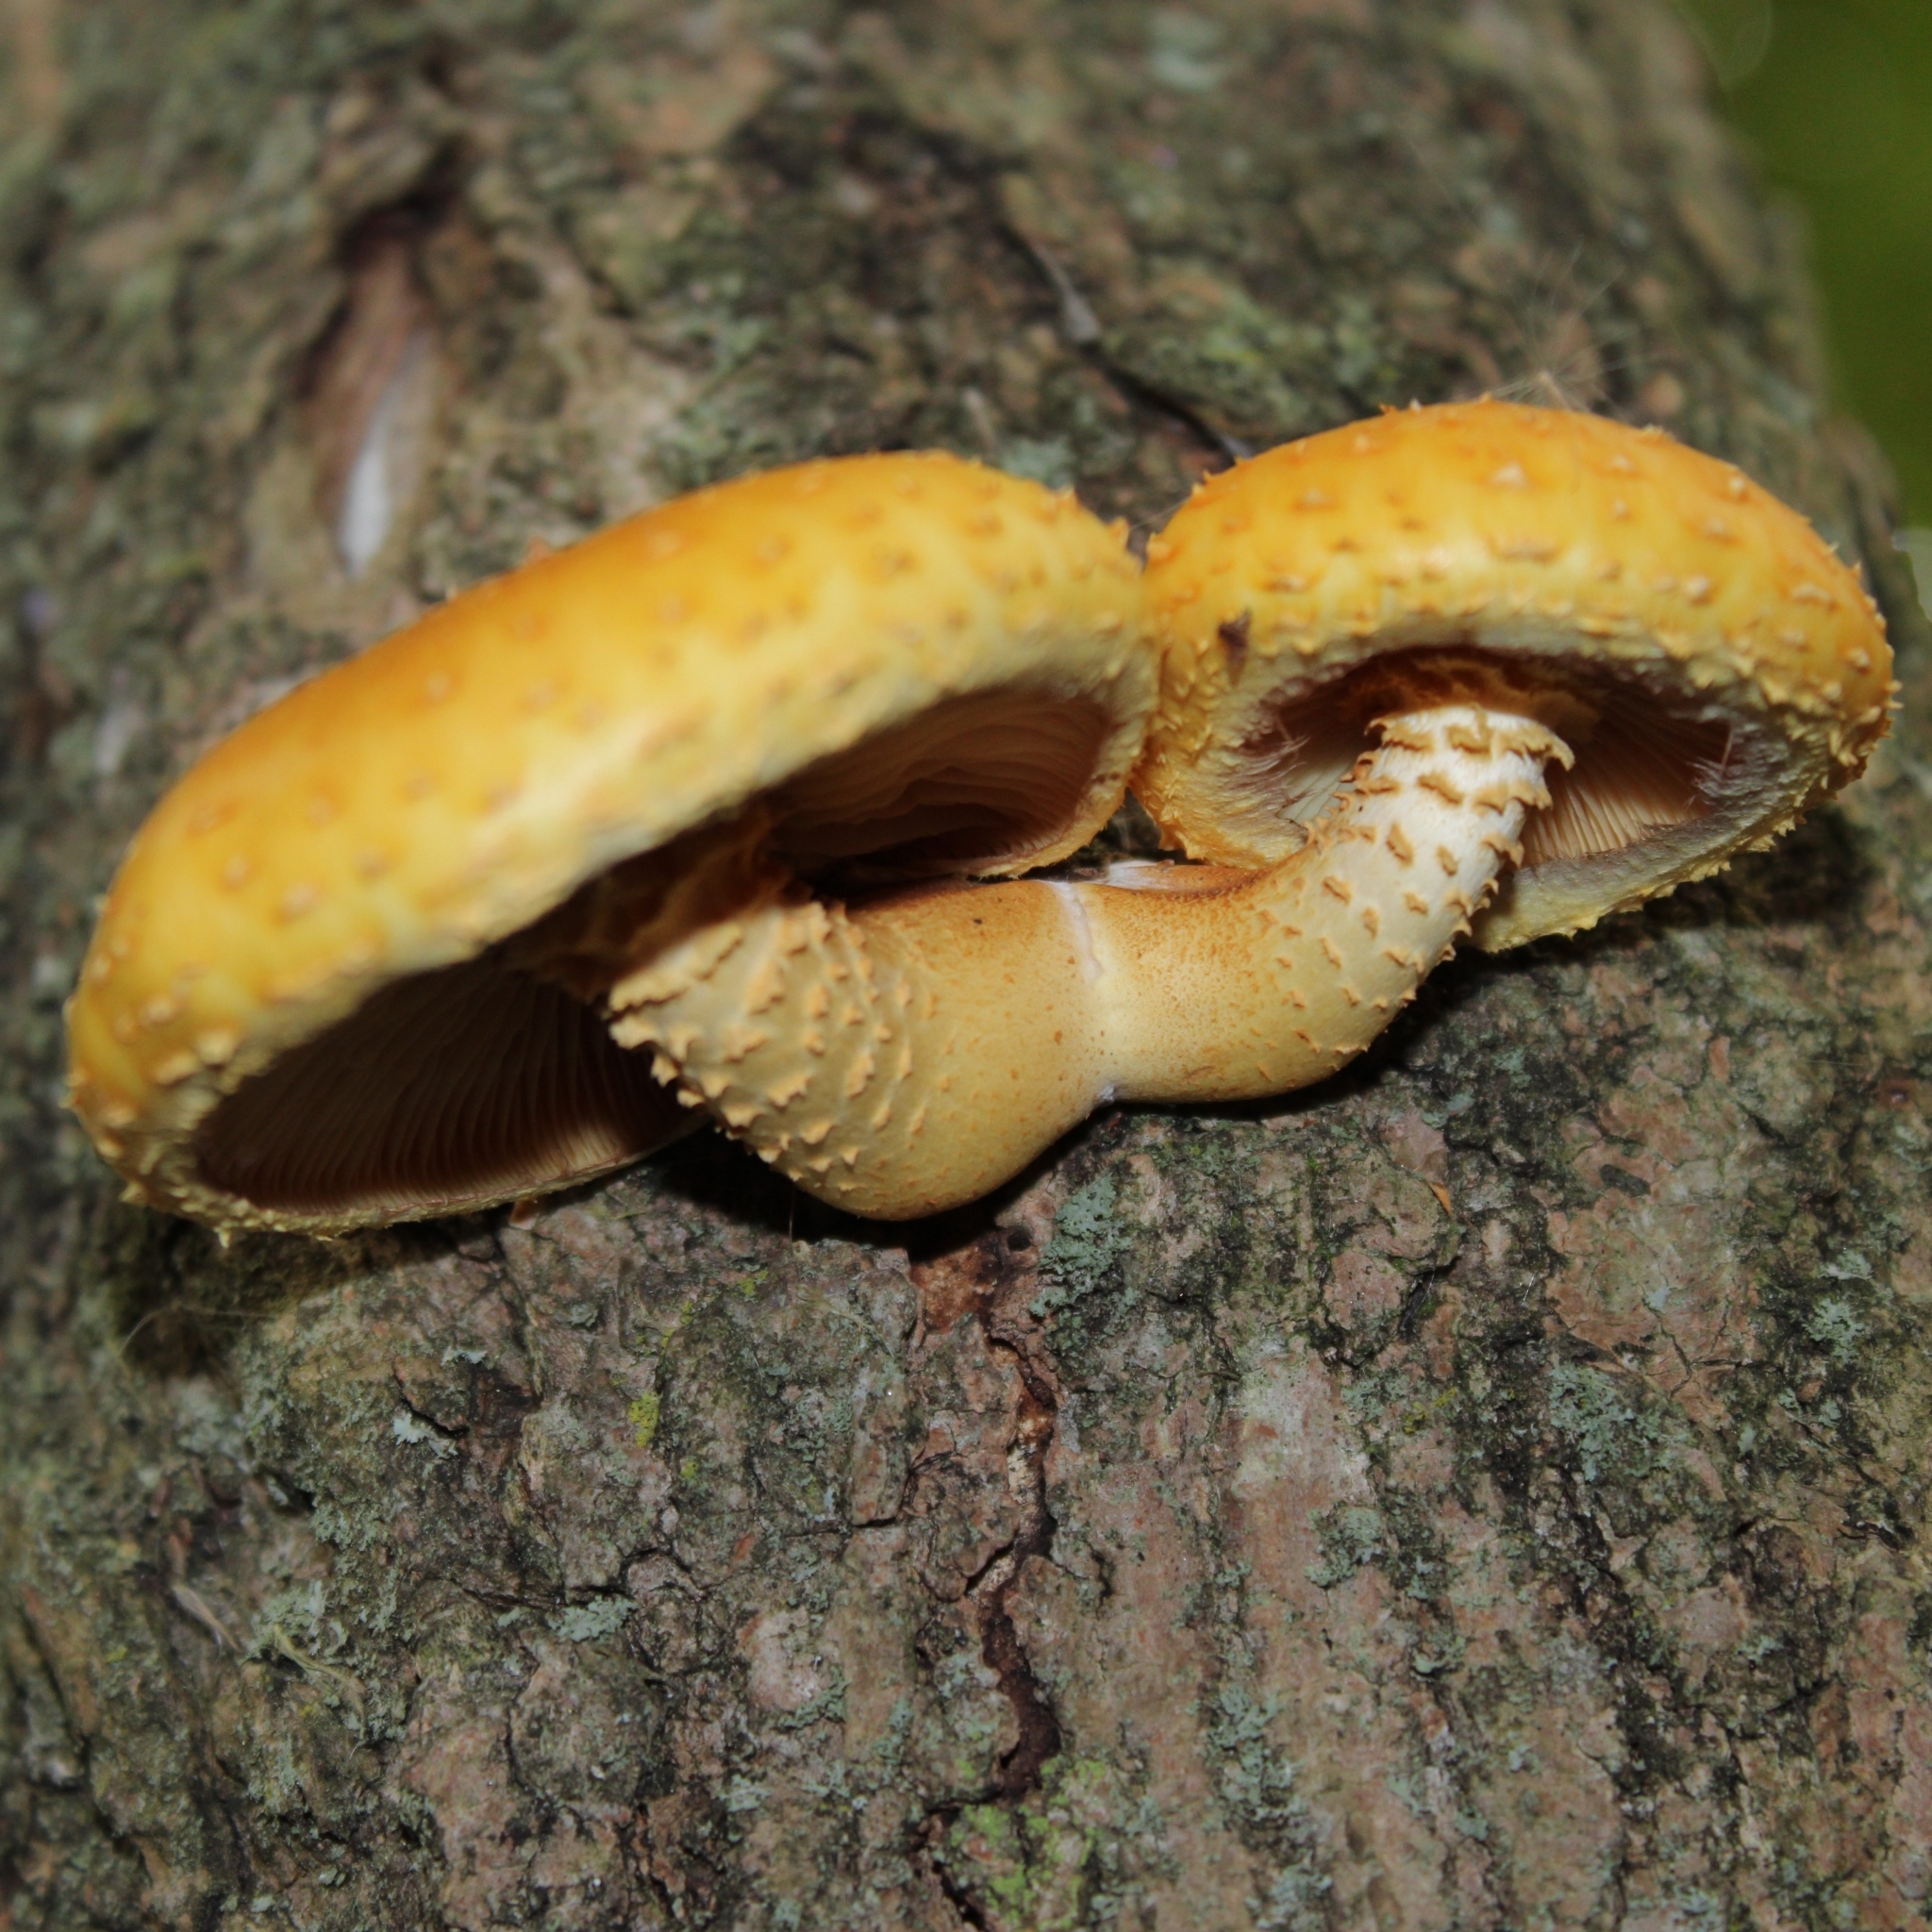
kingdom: Fungi
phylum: Basidiomycota
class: Agaricomycetes
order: Agaricales
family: Strophariaceae
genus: Pholiota
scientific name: Pholiota aurivella
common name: Golden scalycap
